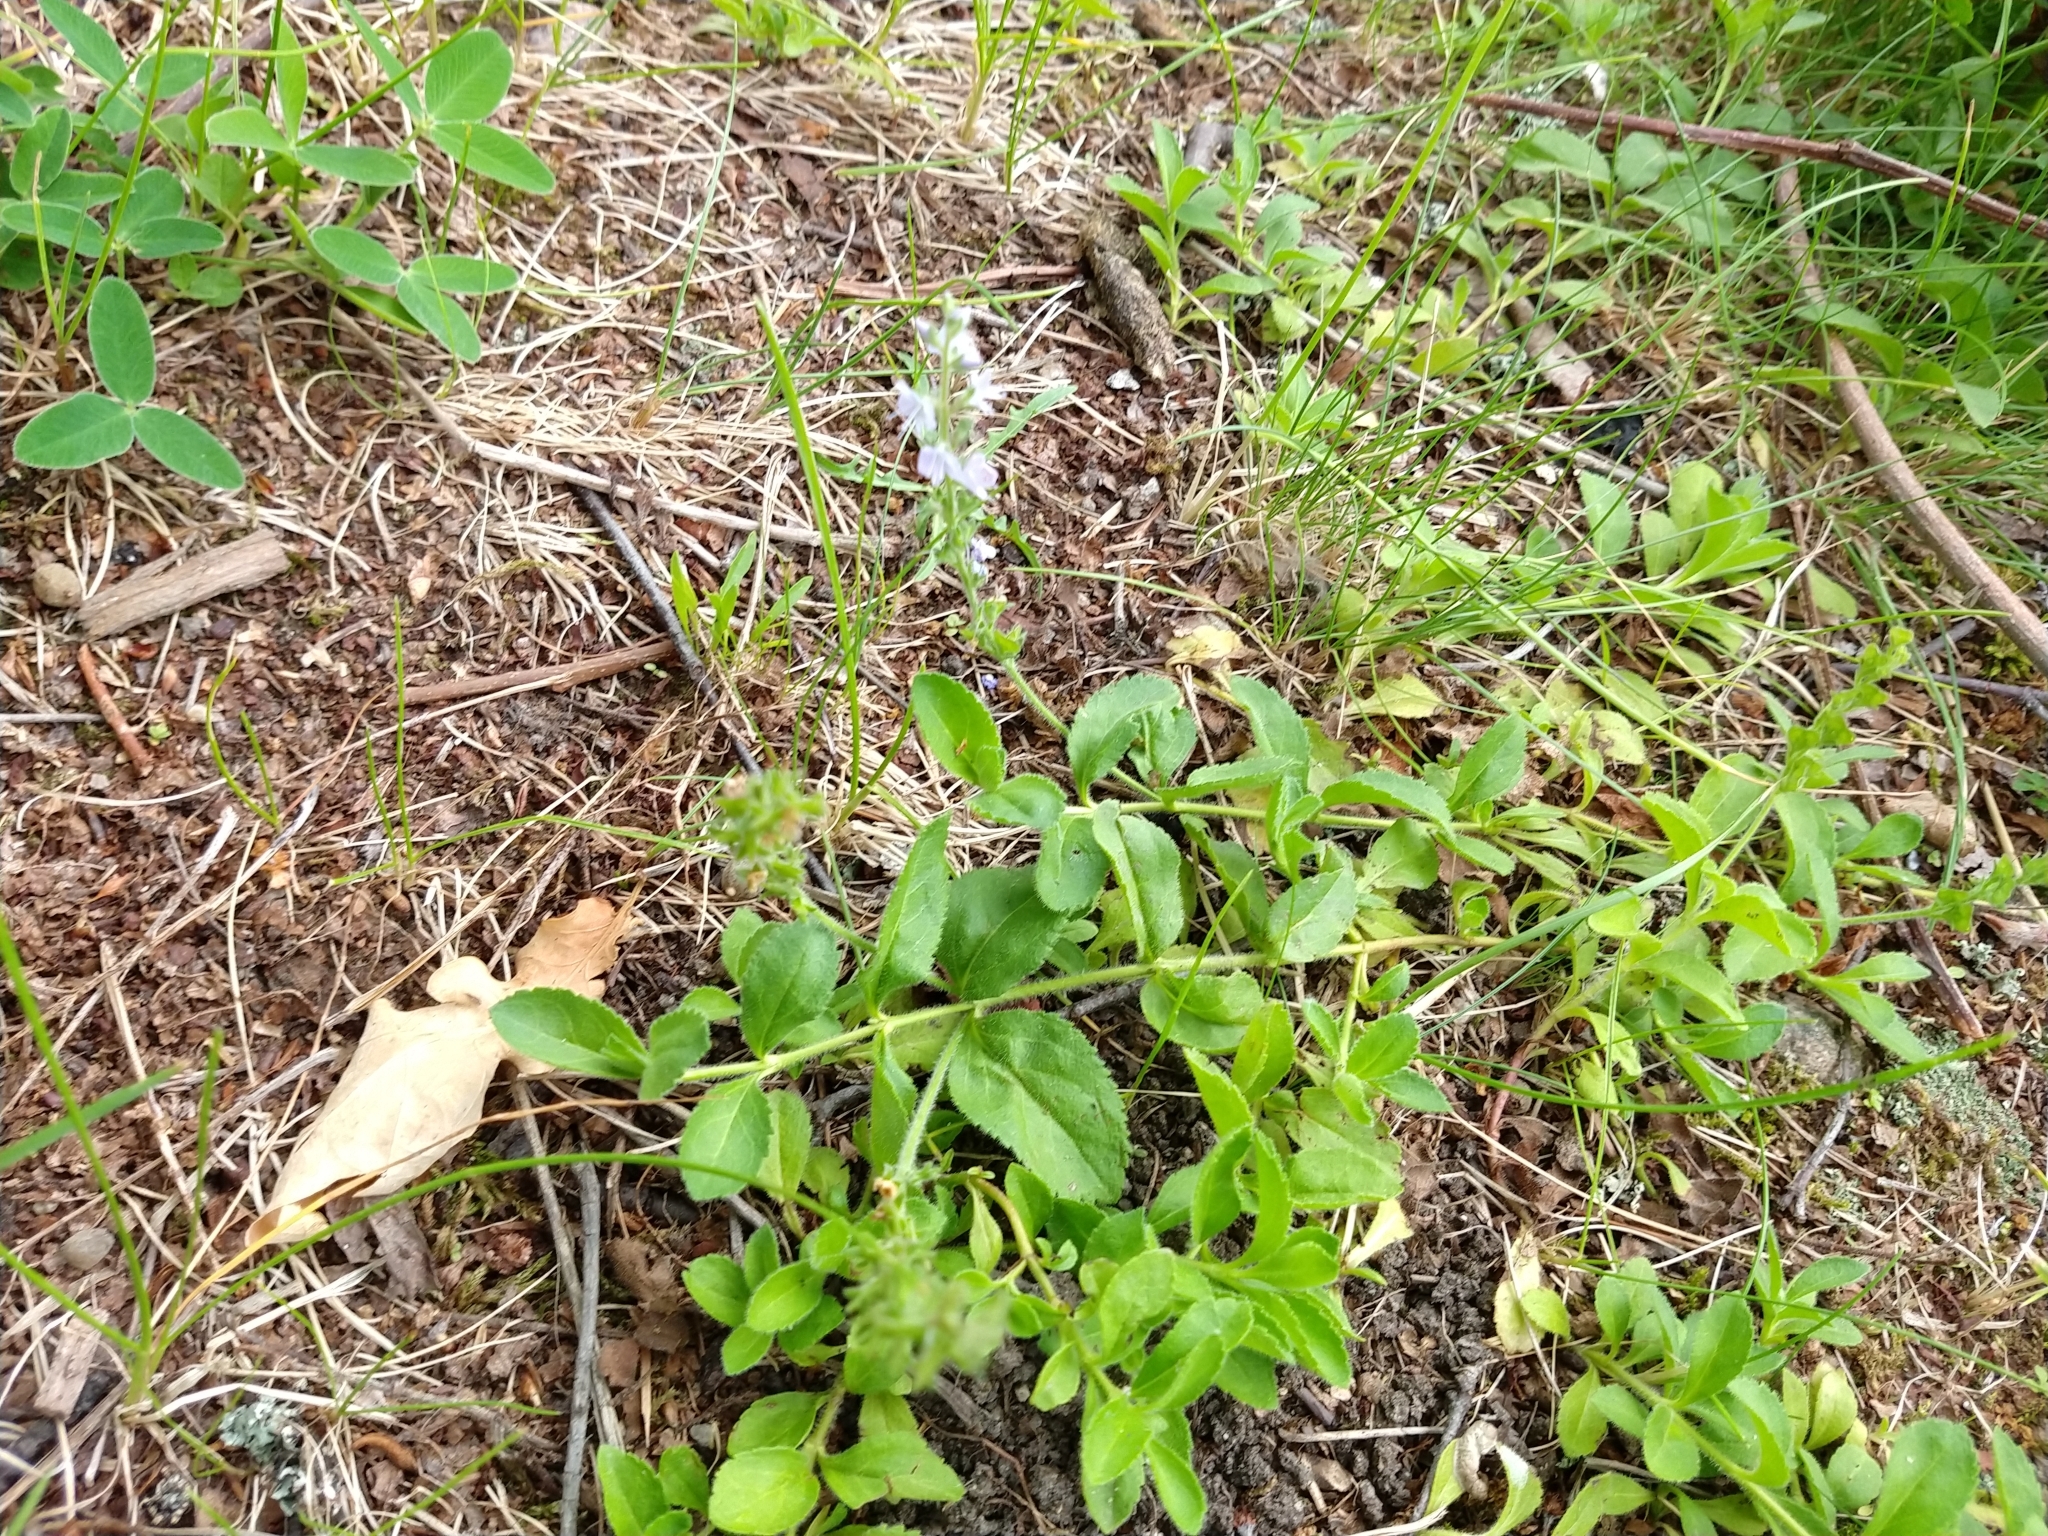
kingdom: Plantae
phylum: Tracheophyta
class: Magnoliopsida
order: Lamiales
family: Plantaginaceae
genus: Veronica
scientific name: Veronica officinalis
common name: Common speedwell
